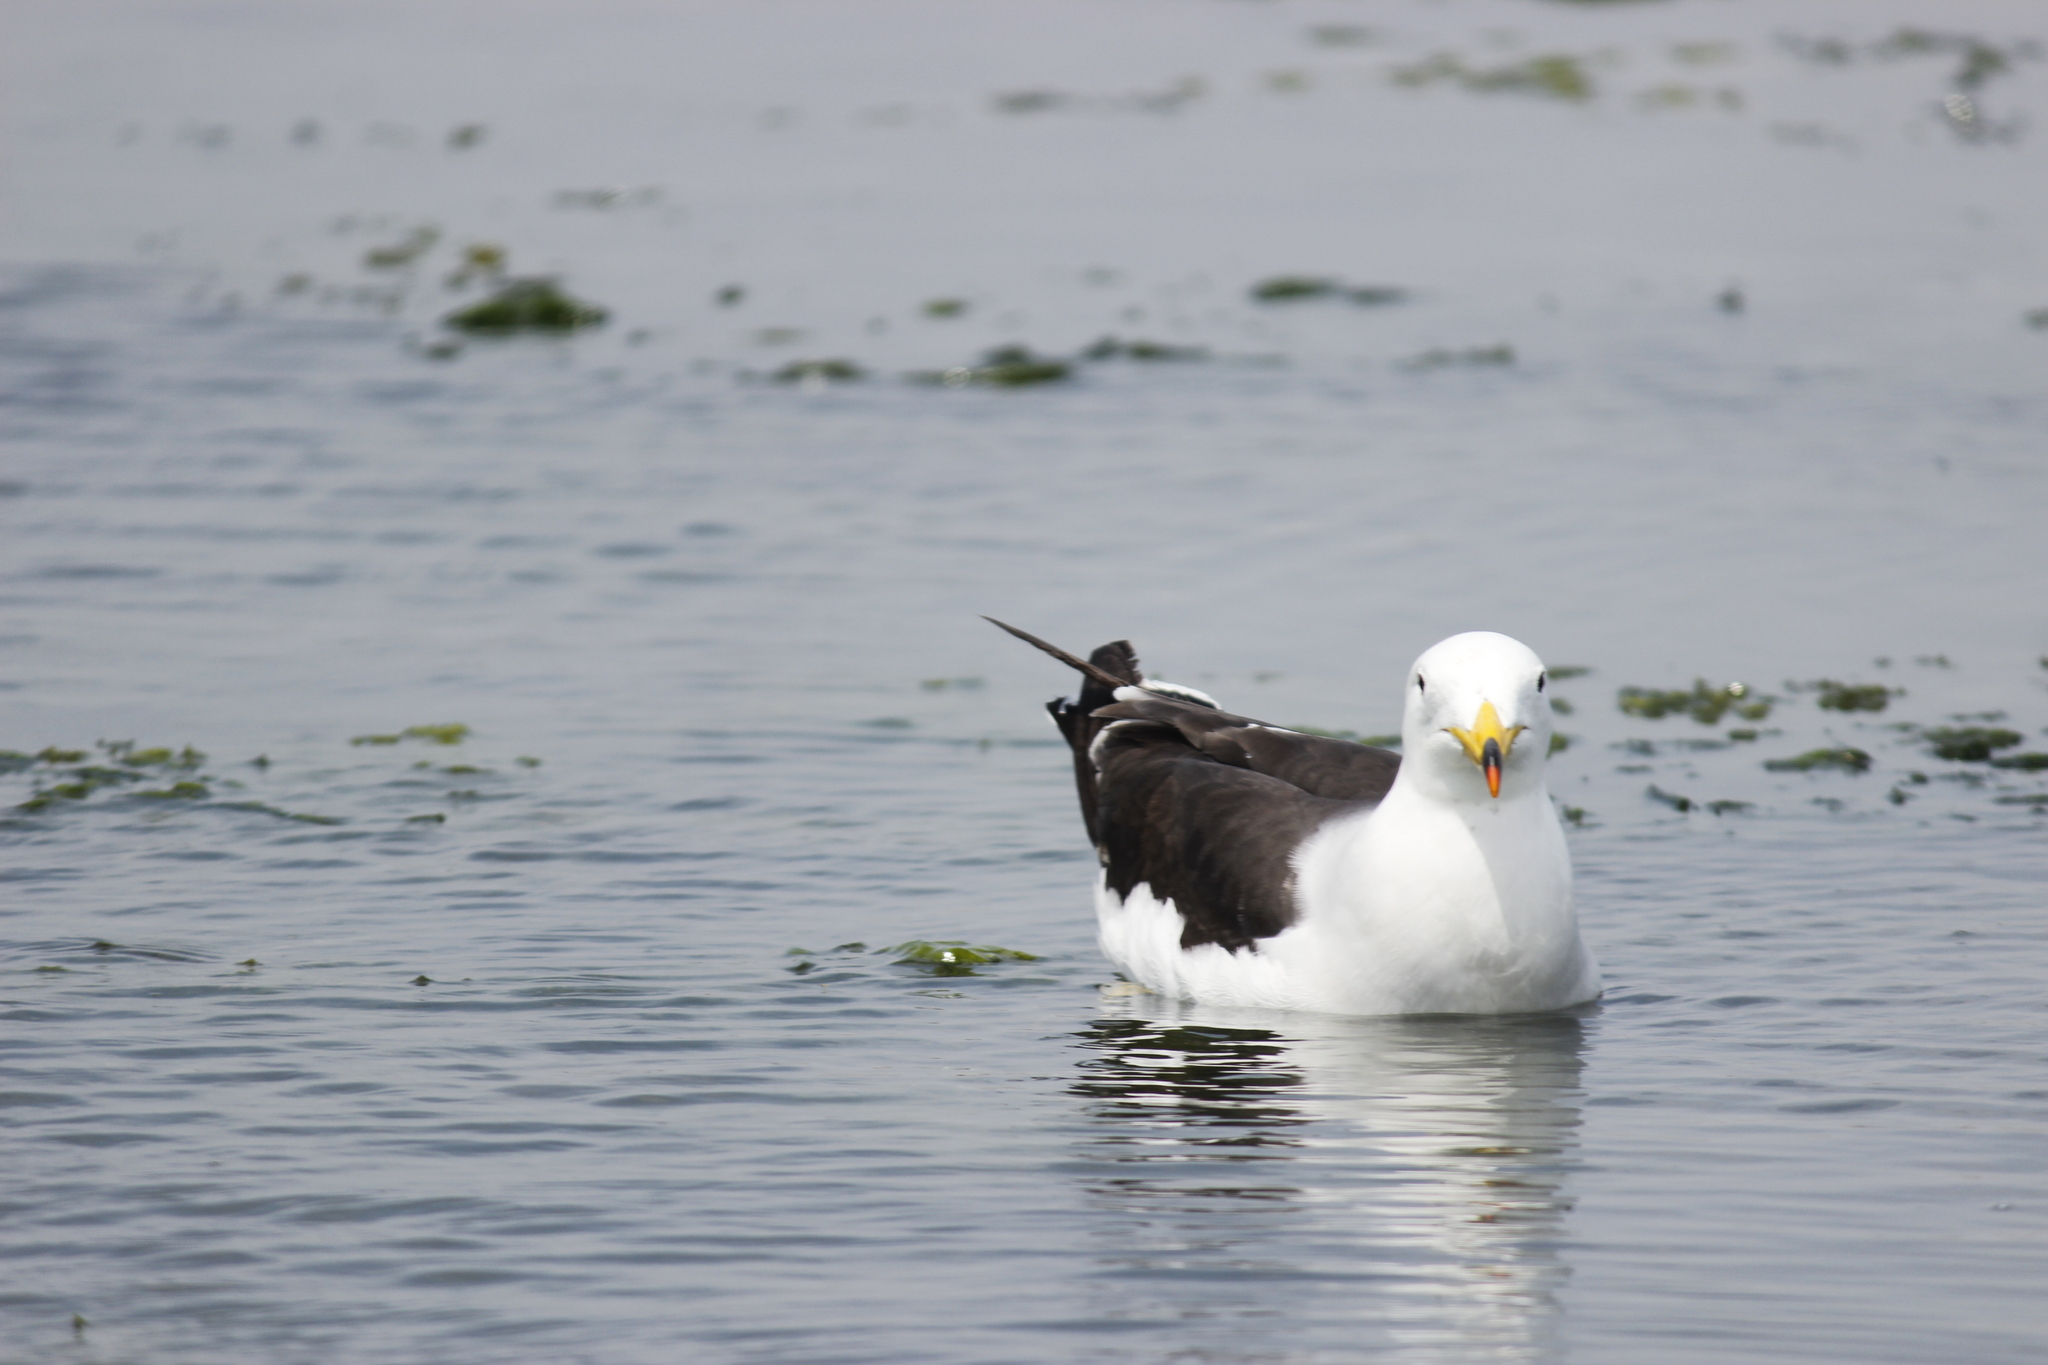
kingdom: Animalia
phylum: Chordata
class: Aves
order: Charadriiformes
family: Laridae
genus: Larus
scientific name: Larus belcheri
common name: Belcher's gull
